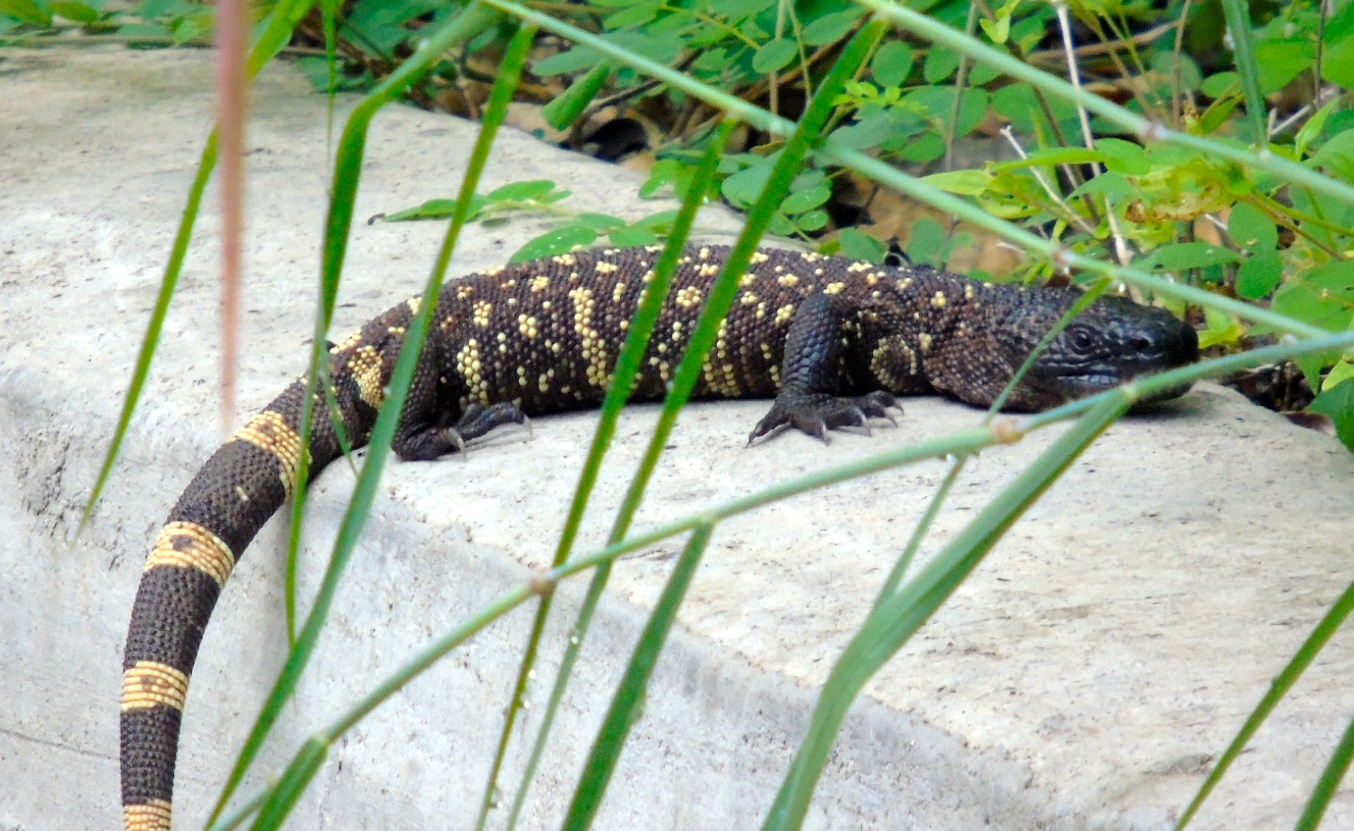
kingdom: Animalia
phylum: Chordata
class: Squamata
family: Helodermatidae
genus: Heloderma
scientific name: Heloderma horridum
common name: Mexican beaded lizard
